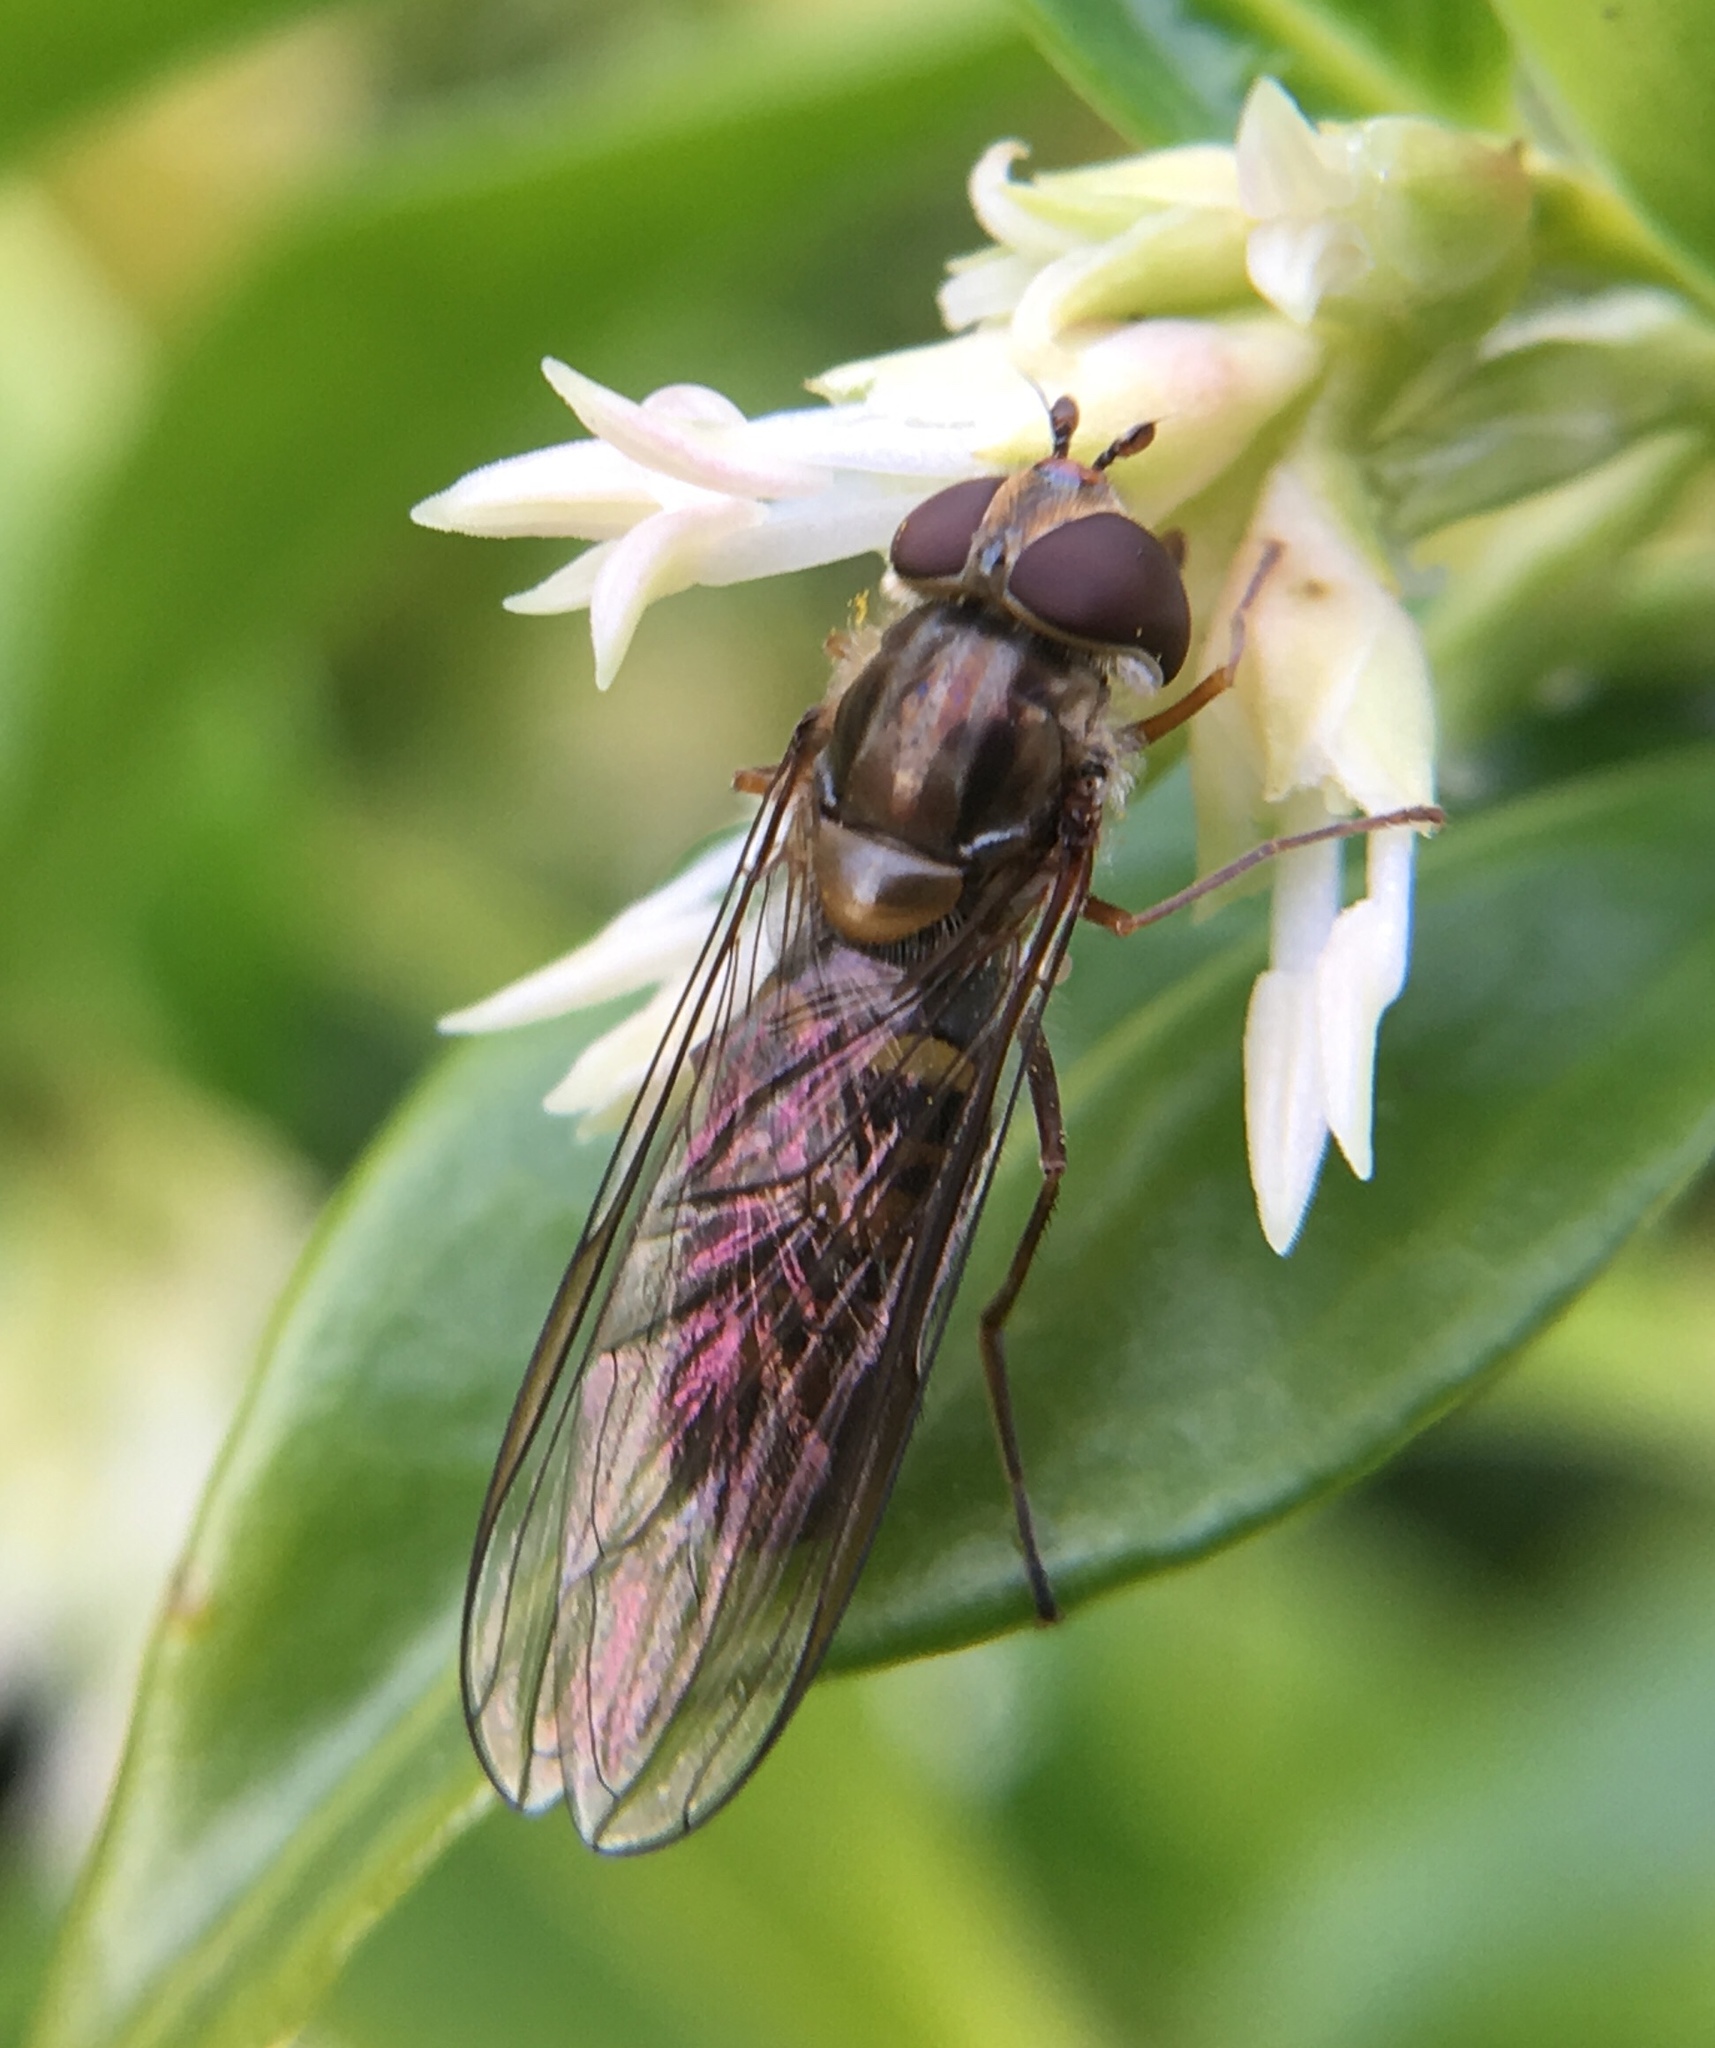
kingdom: Animalia
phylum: Arthropoda
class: Insecta
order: Diptera
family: Syrphidae
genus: Episyrphus
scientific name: Episyrphus balteatus
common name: Marmalade hoverfly
